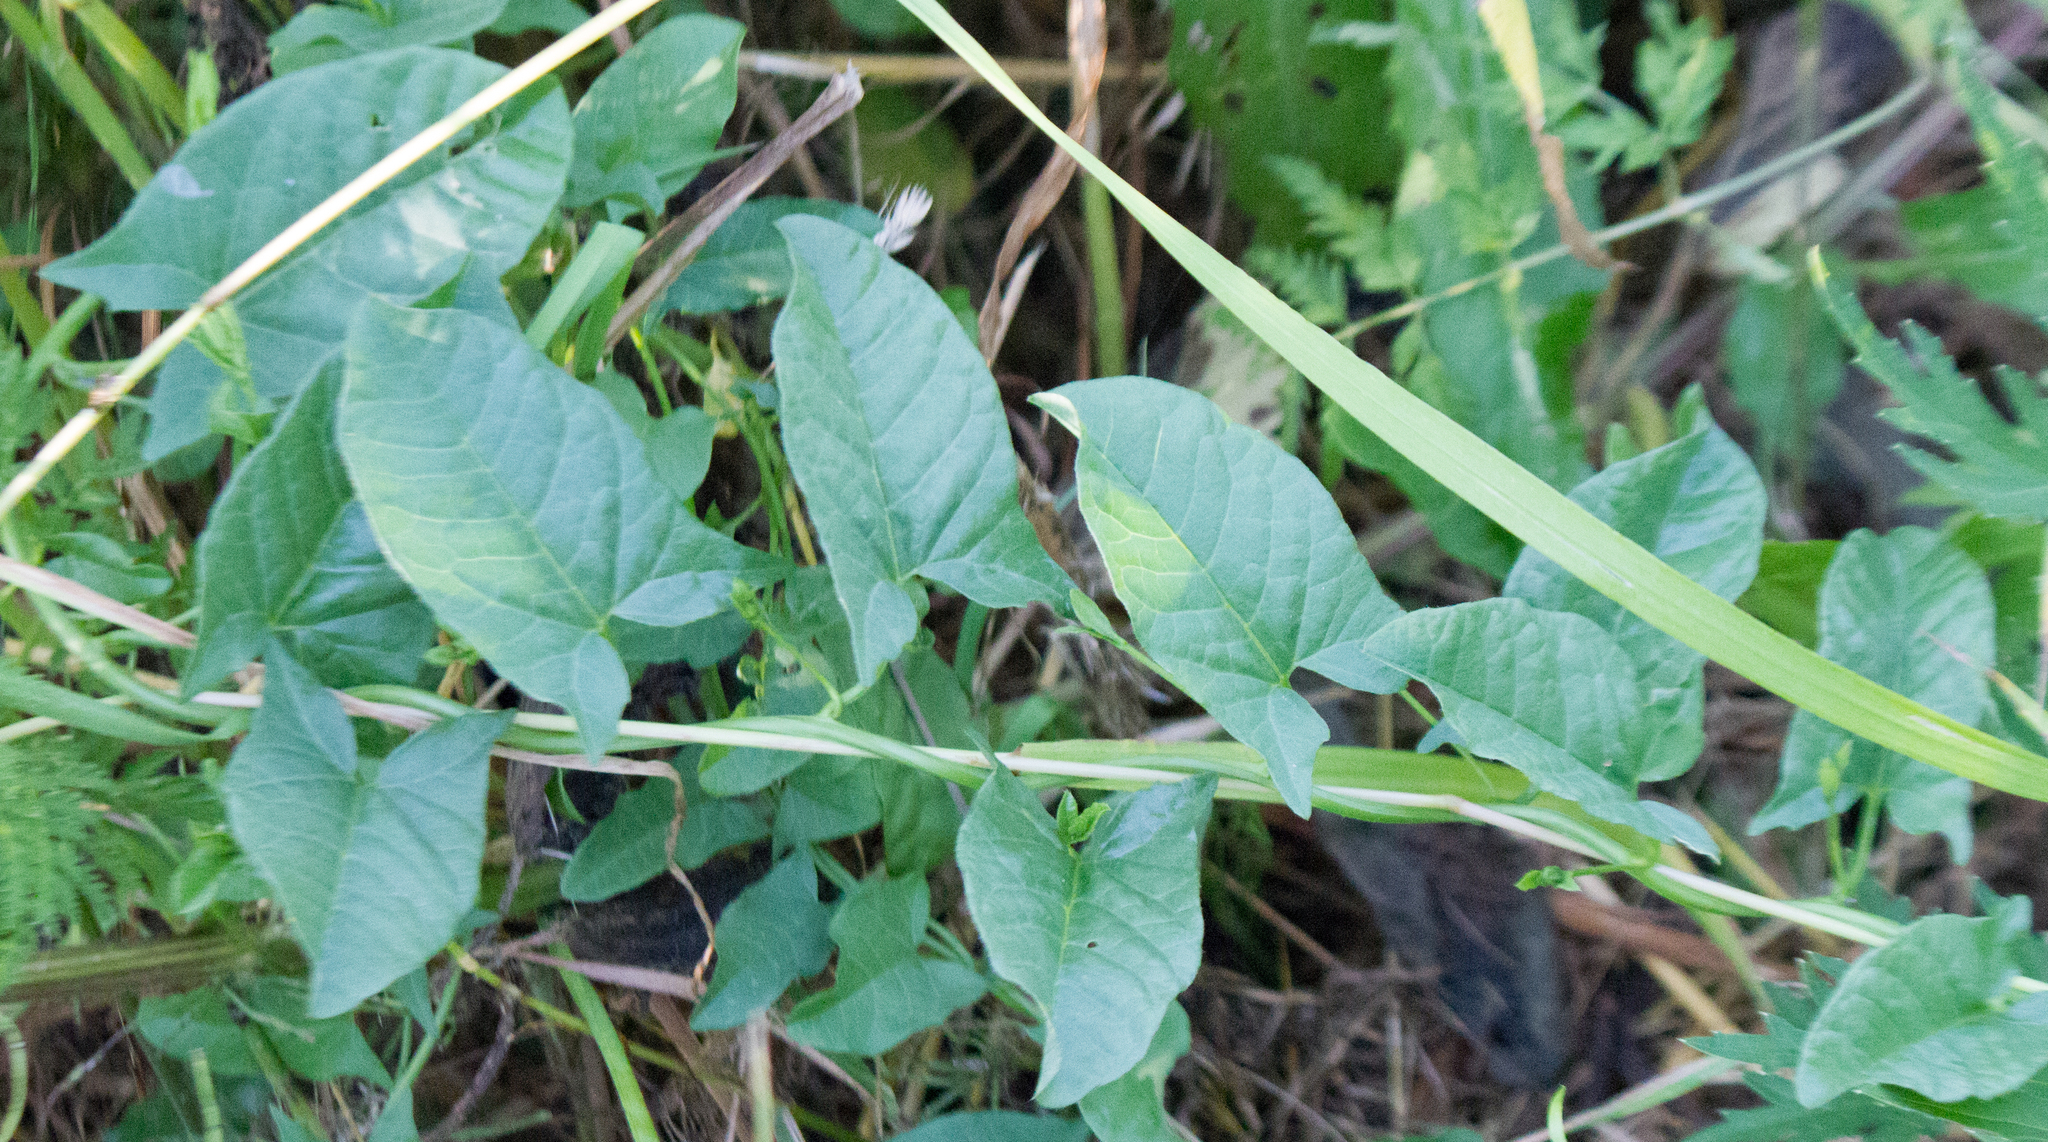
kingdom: Plantae
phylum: Tracheophyta
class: Magnoliopsida
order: Solanales
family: Convolvulaceae
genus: Convolvulus
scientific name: Convolvulus arvensis
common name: Field bindweed
